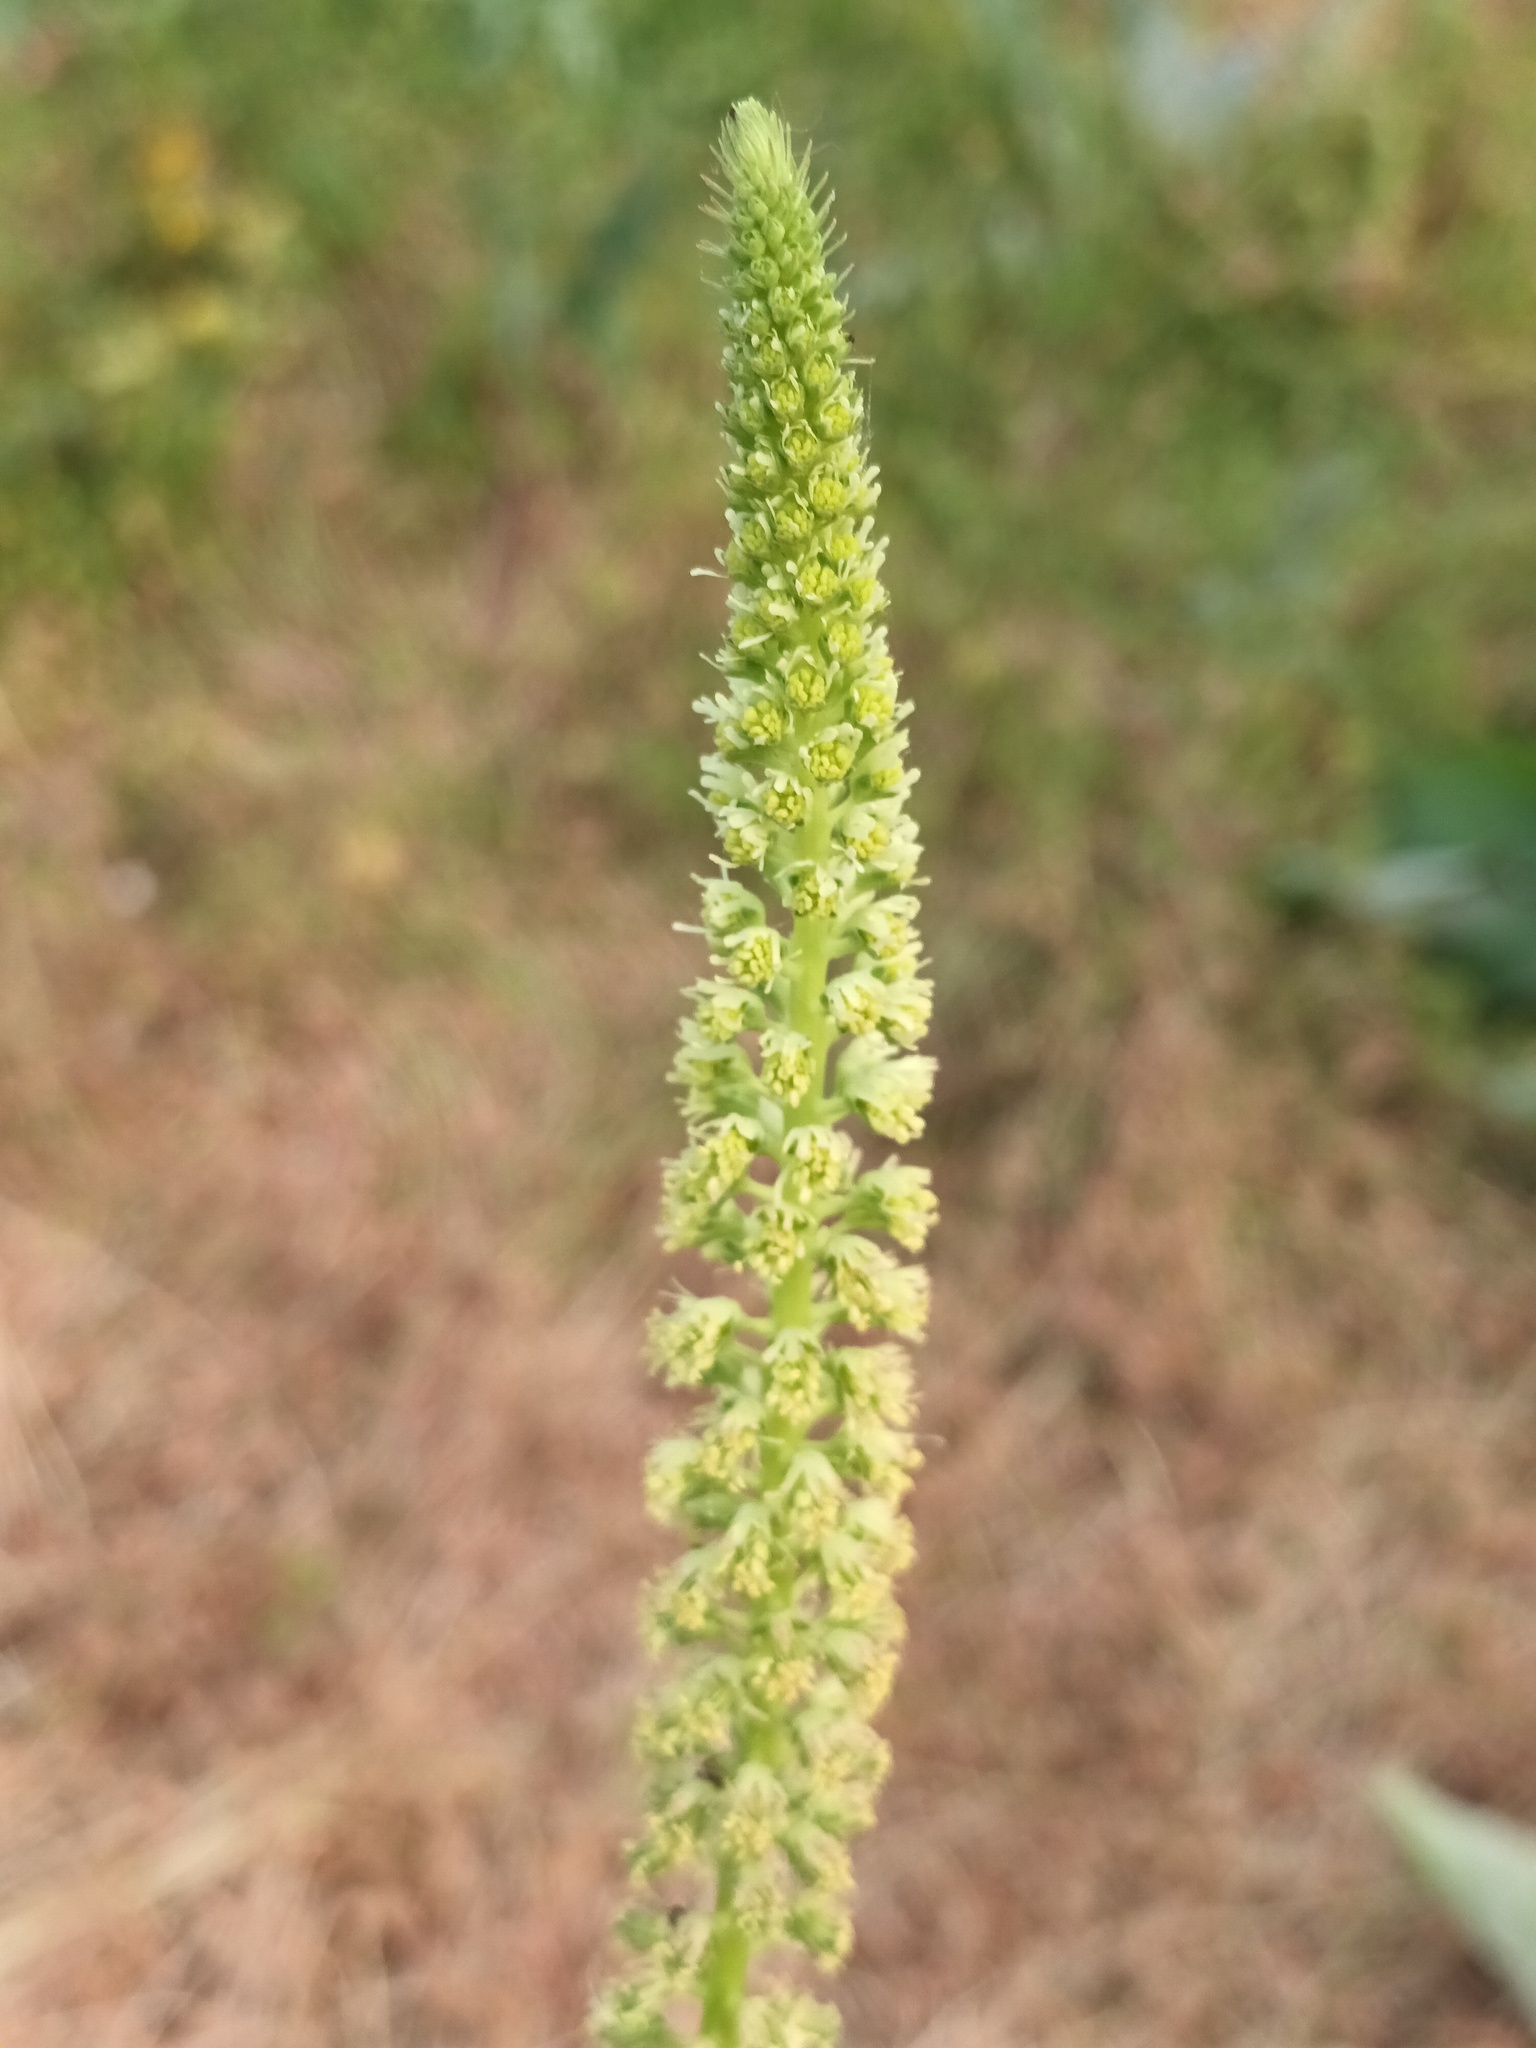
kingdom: Plantae
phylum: Tracheophyta
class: Magnoliopsida
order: Brassicales
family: Resedaceae
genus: Reseda
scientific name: Reseda luteola
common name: Weld
